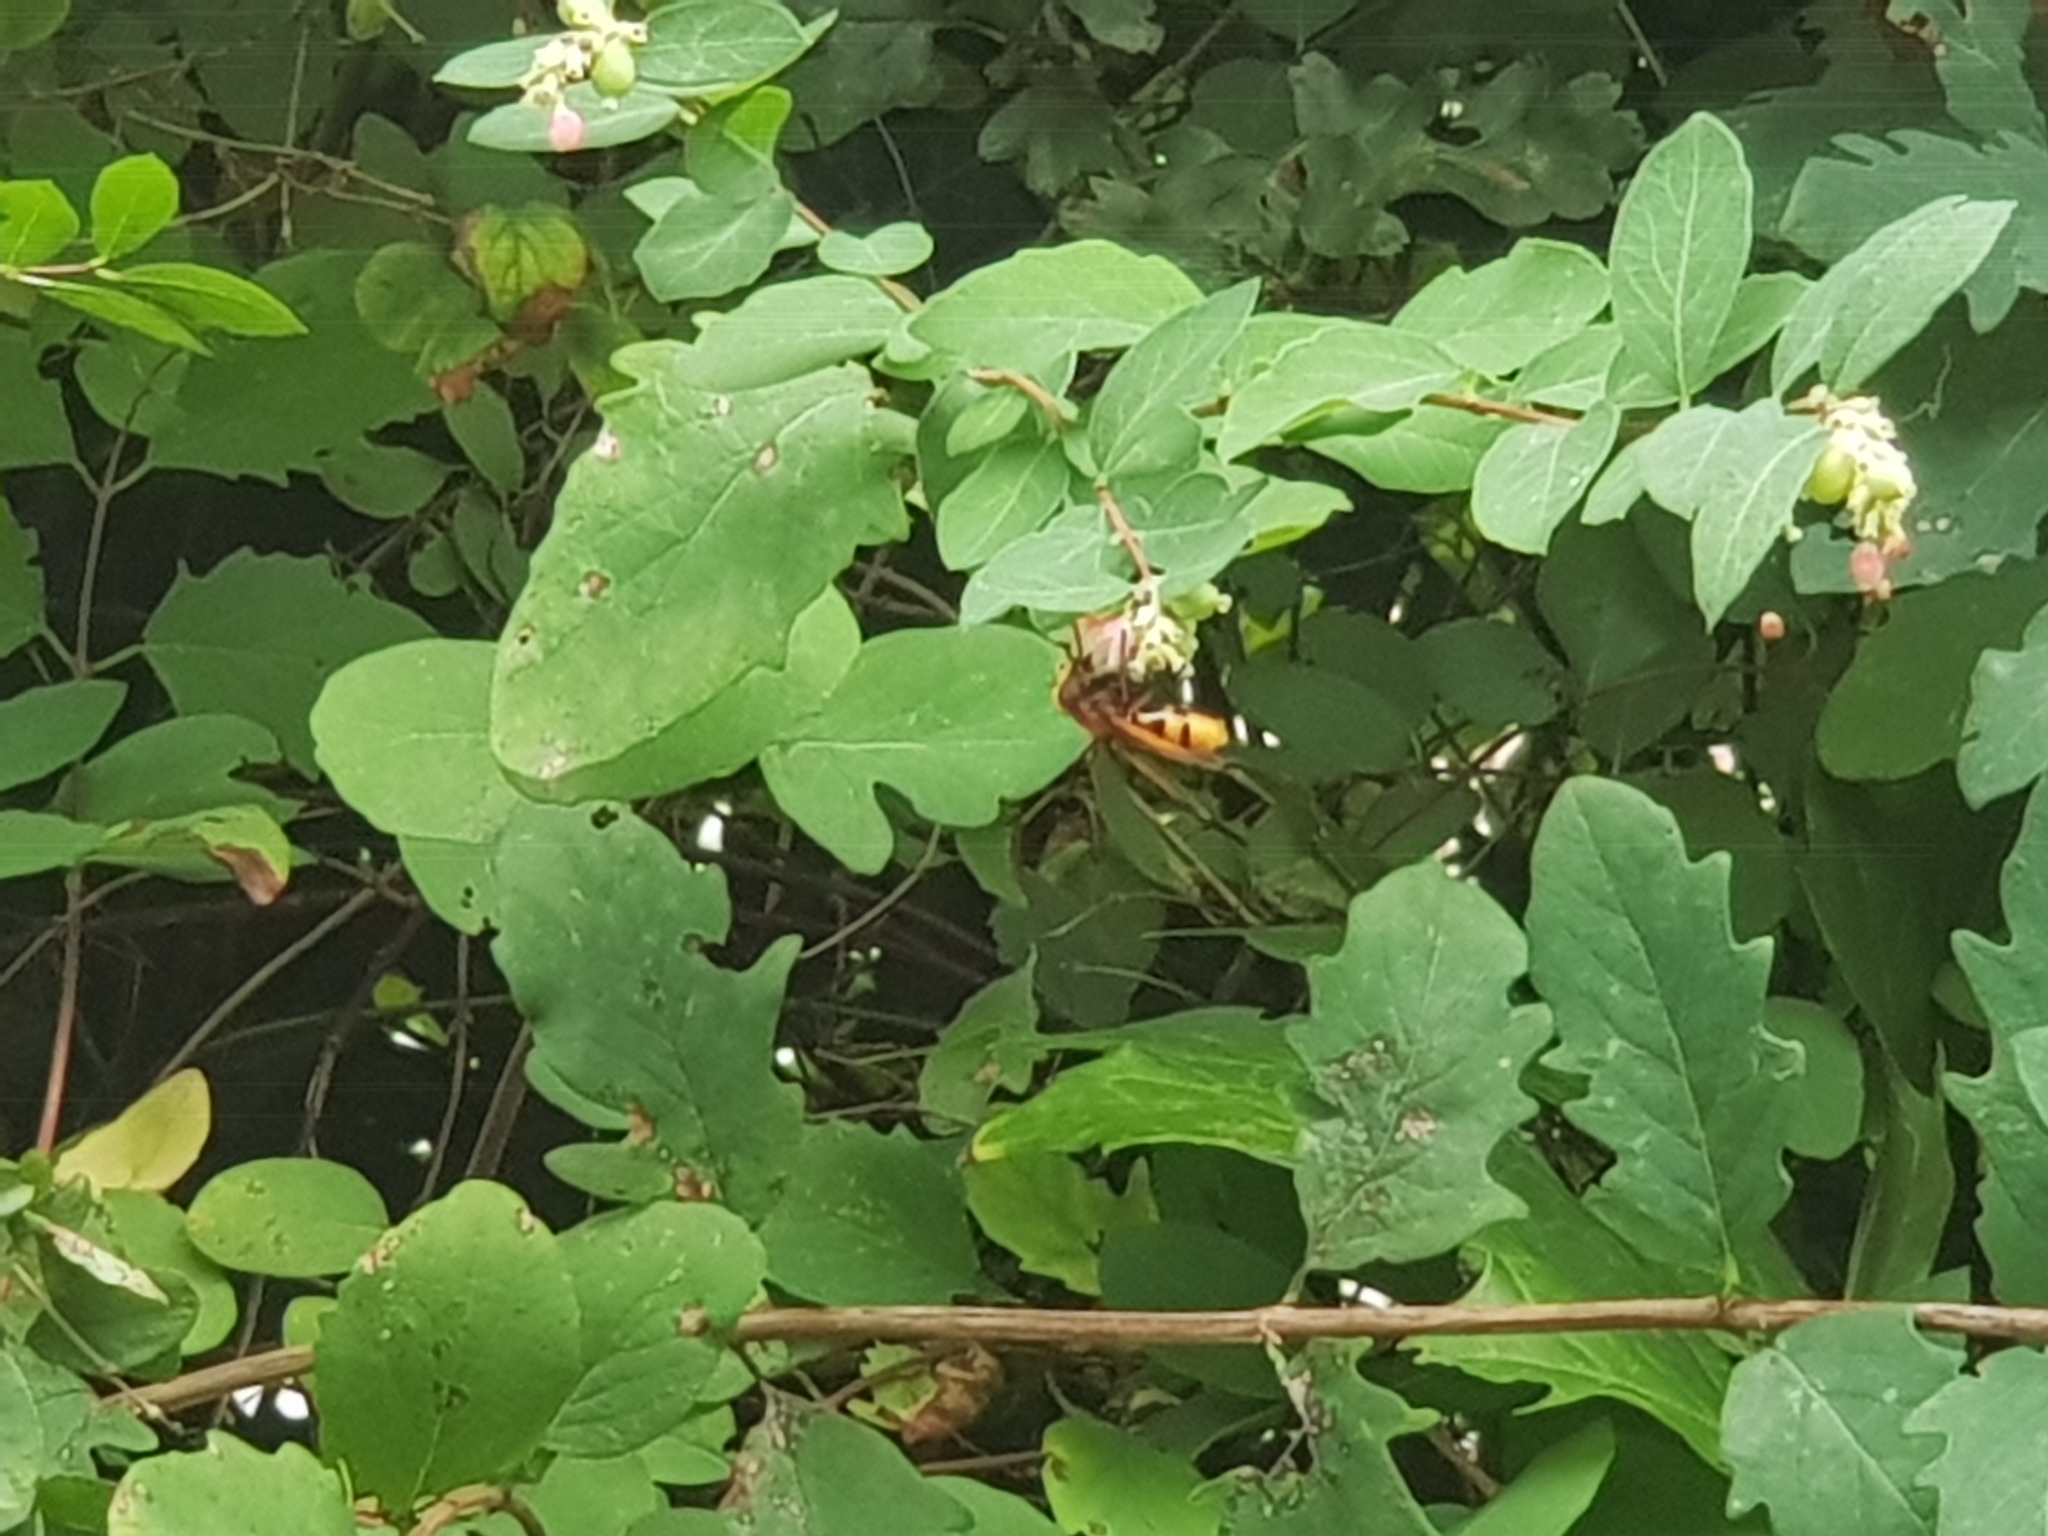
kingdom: Animalia
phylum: Arthropoda
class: Insecta
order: Diptera
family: Syrphidae
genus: Volucella
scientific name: Volucella zonaria
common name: Hornet hoverfly
